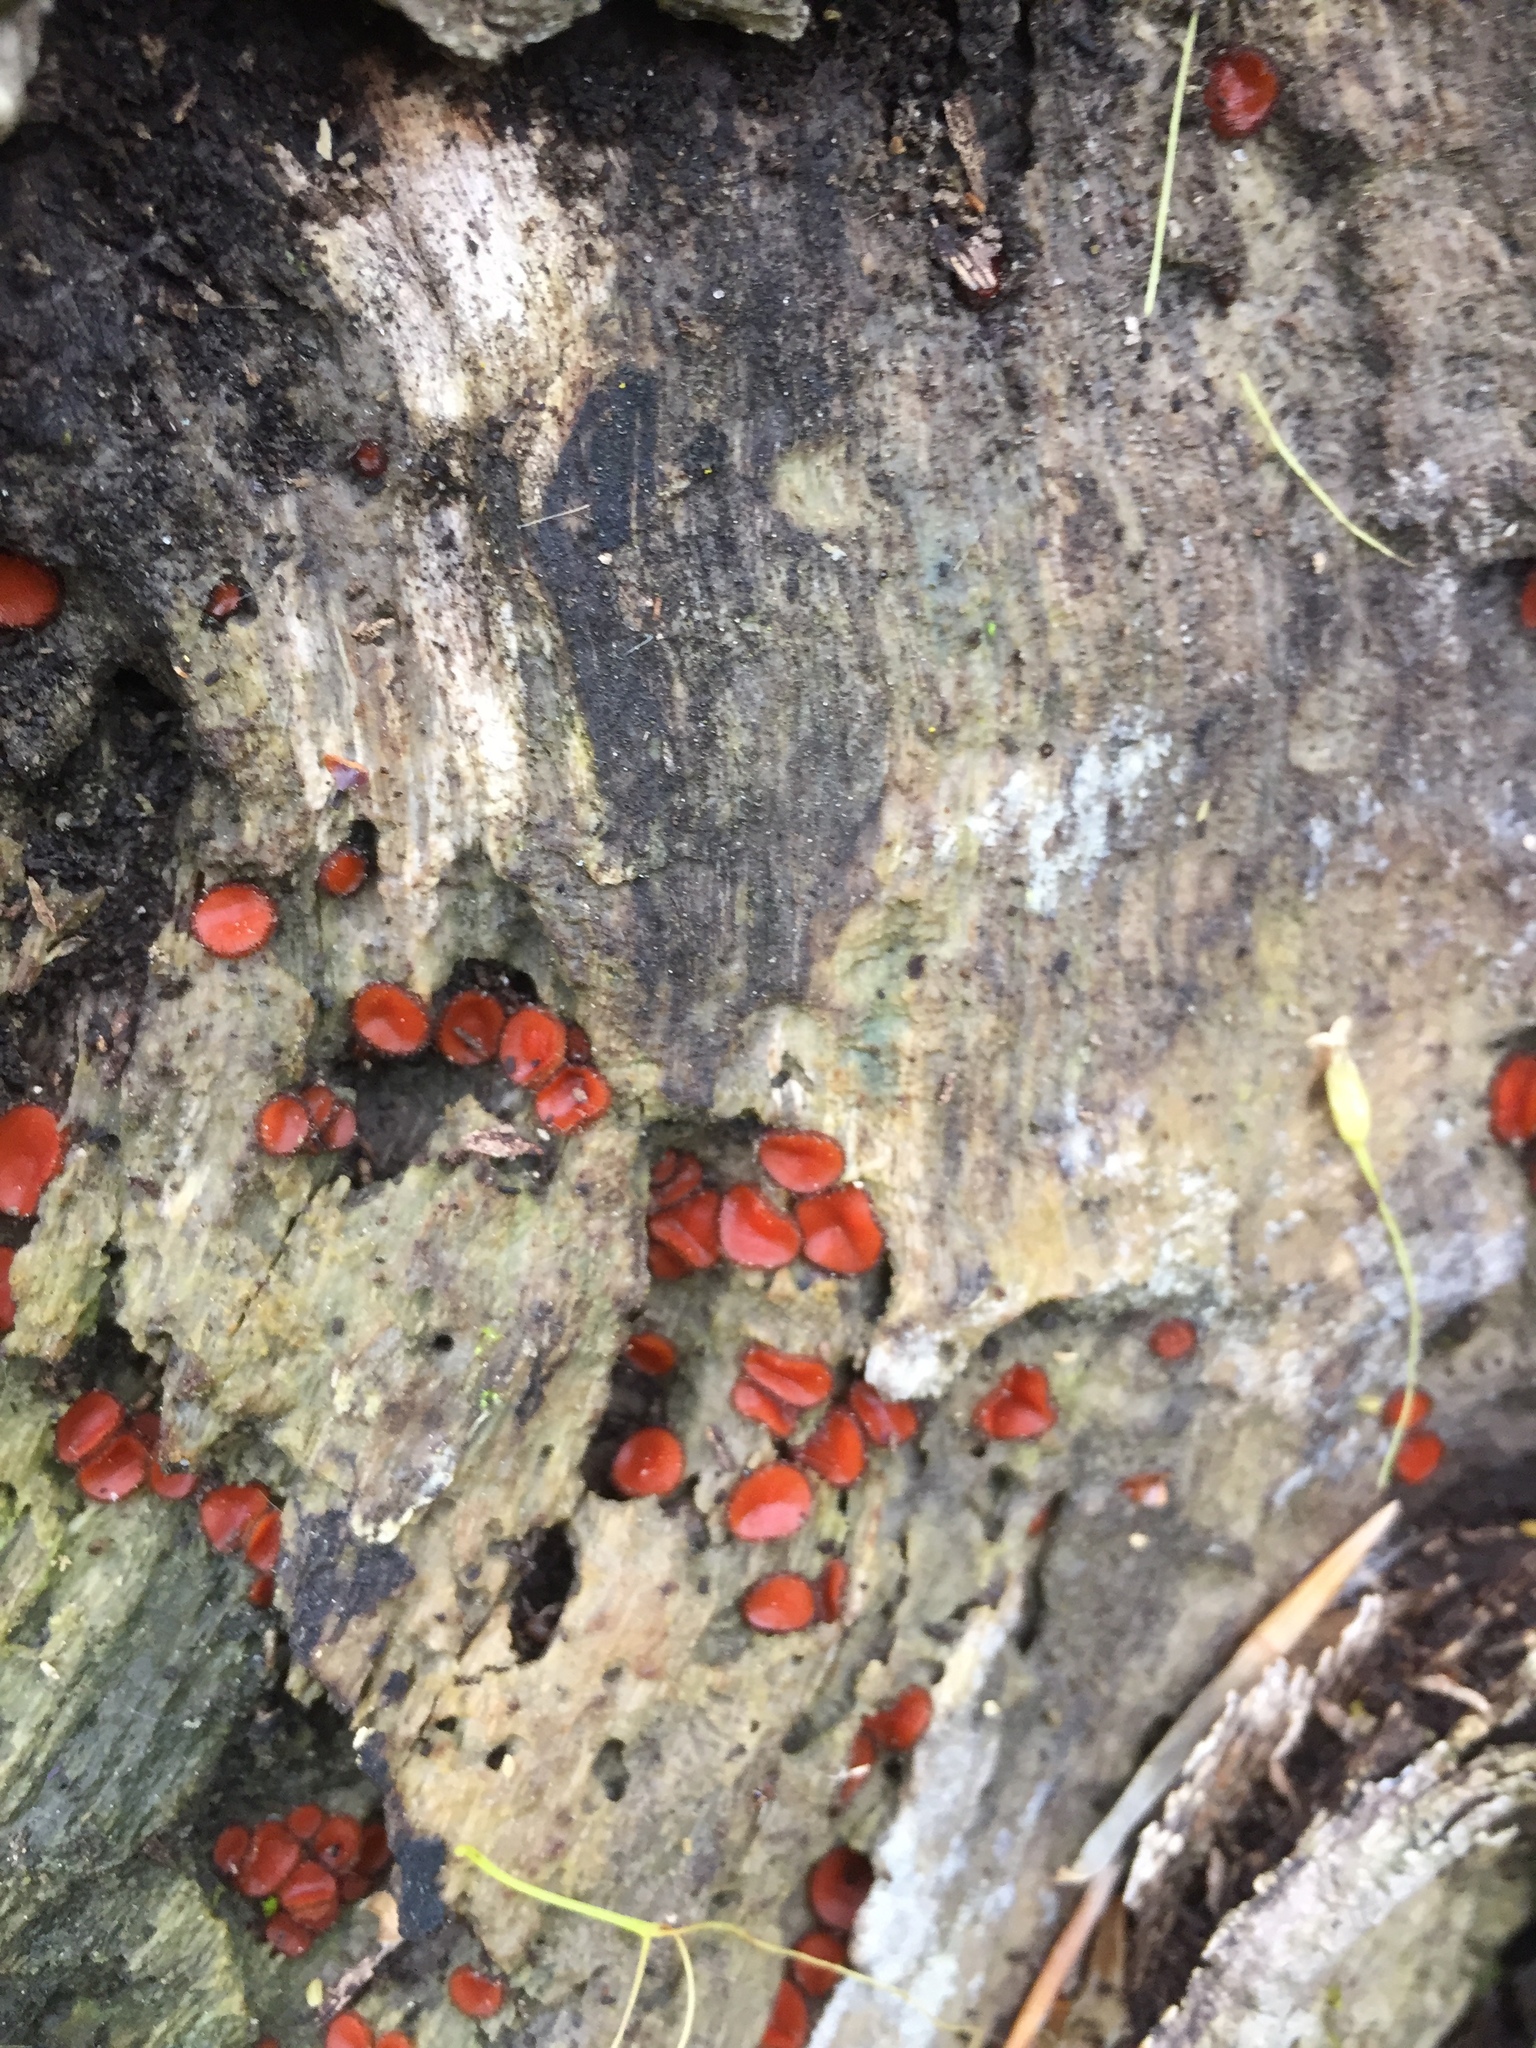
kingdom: Fungi
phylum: Ascomycota
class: Pezizomycetes
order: Pezizales
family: Pyronemataceae
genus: Scutellinia
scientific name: Scutellinia
